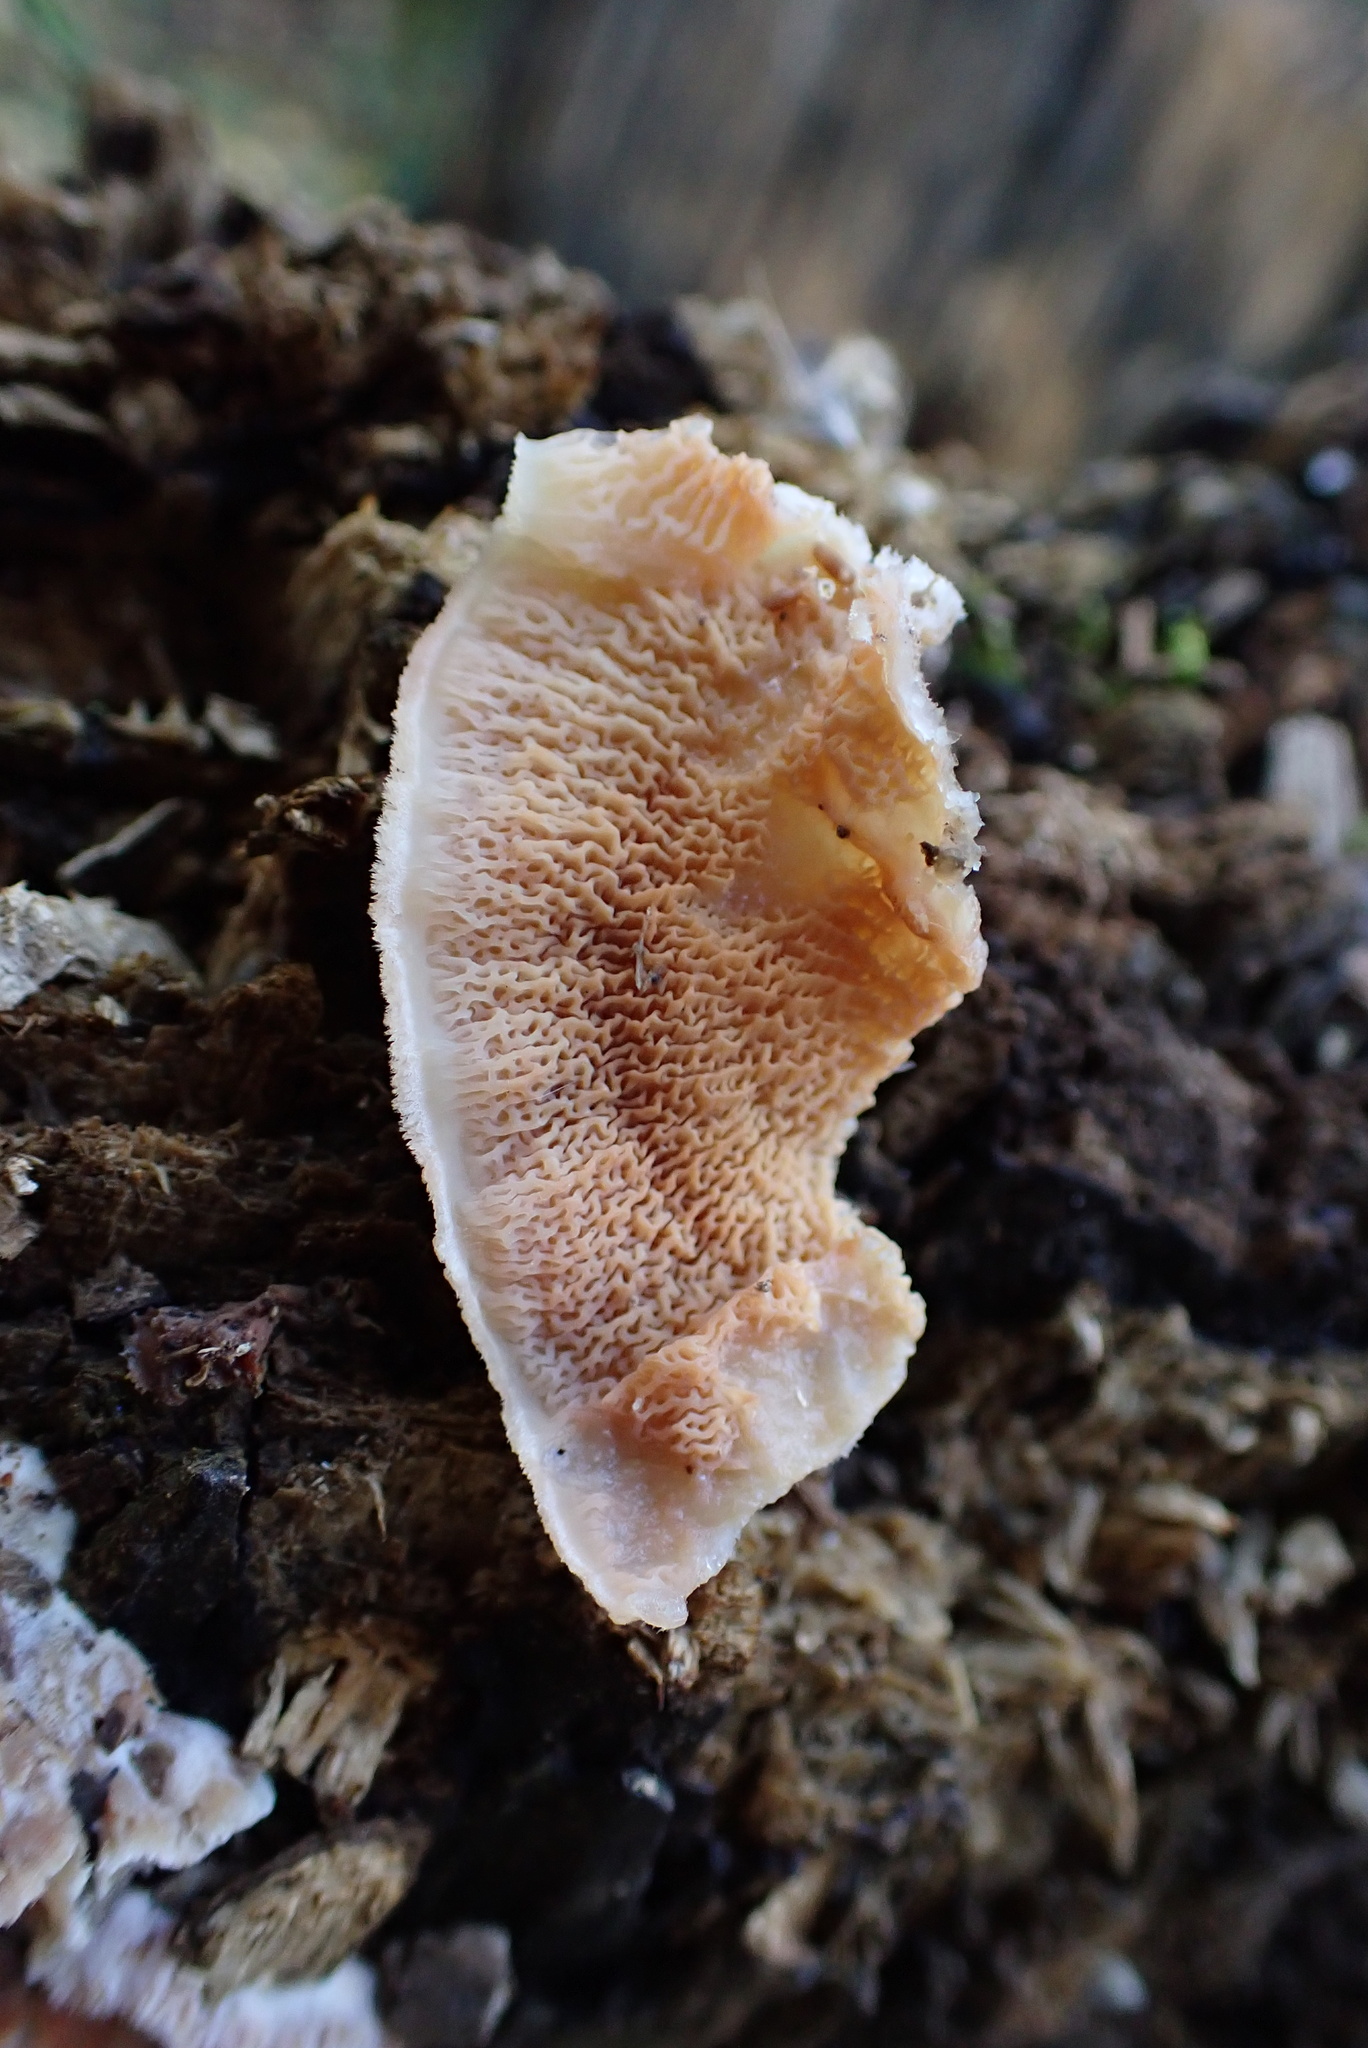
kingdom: Fungi
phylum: Basidiomycota
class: Agaricomycetes
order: Polyporales
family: Meruliaceae
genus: Phlebia
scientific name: Phlebia tremellosa
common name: Jelly rot
